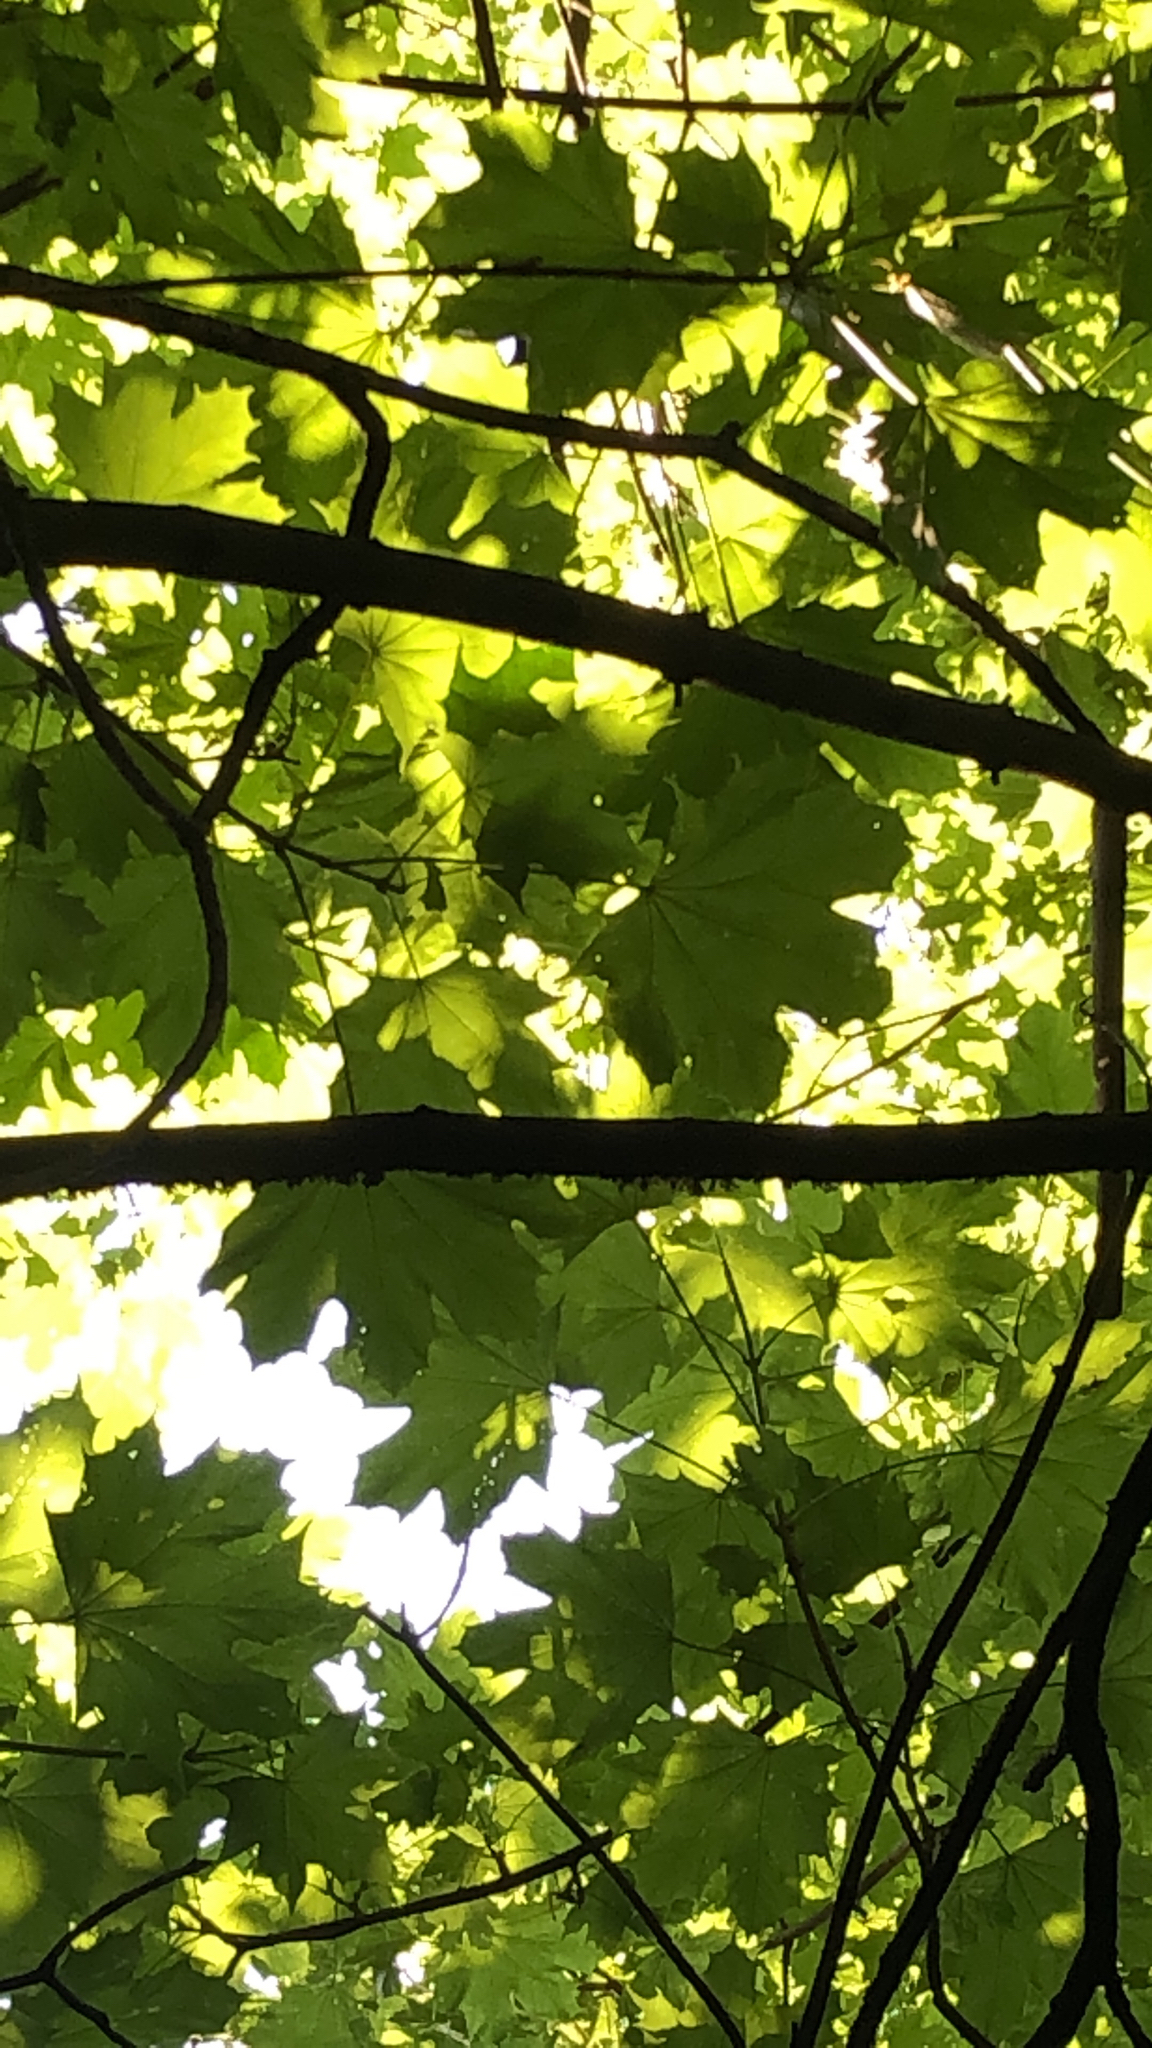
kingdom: Plantae
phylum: Tracheophyta
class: Magnoliopsida
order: Sapindales
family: Sapindaceae
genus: Acer
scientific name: Acer platanoides
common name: Norway maple
